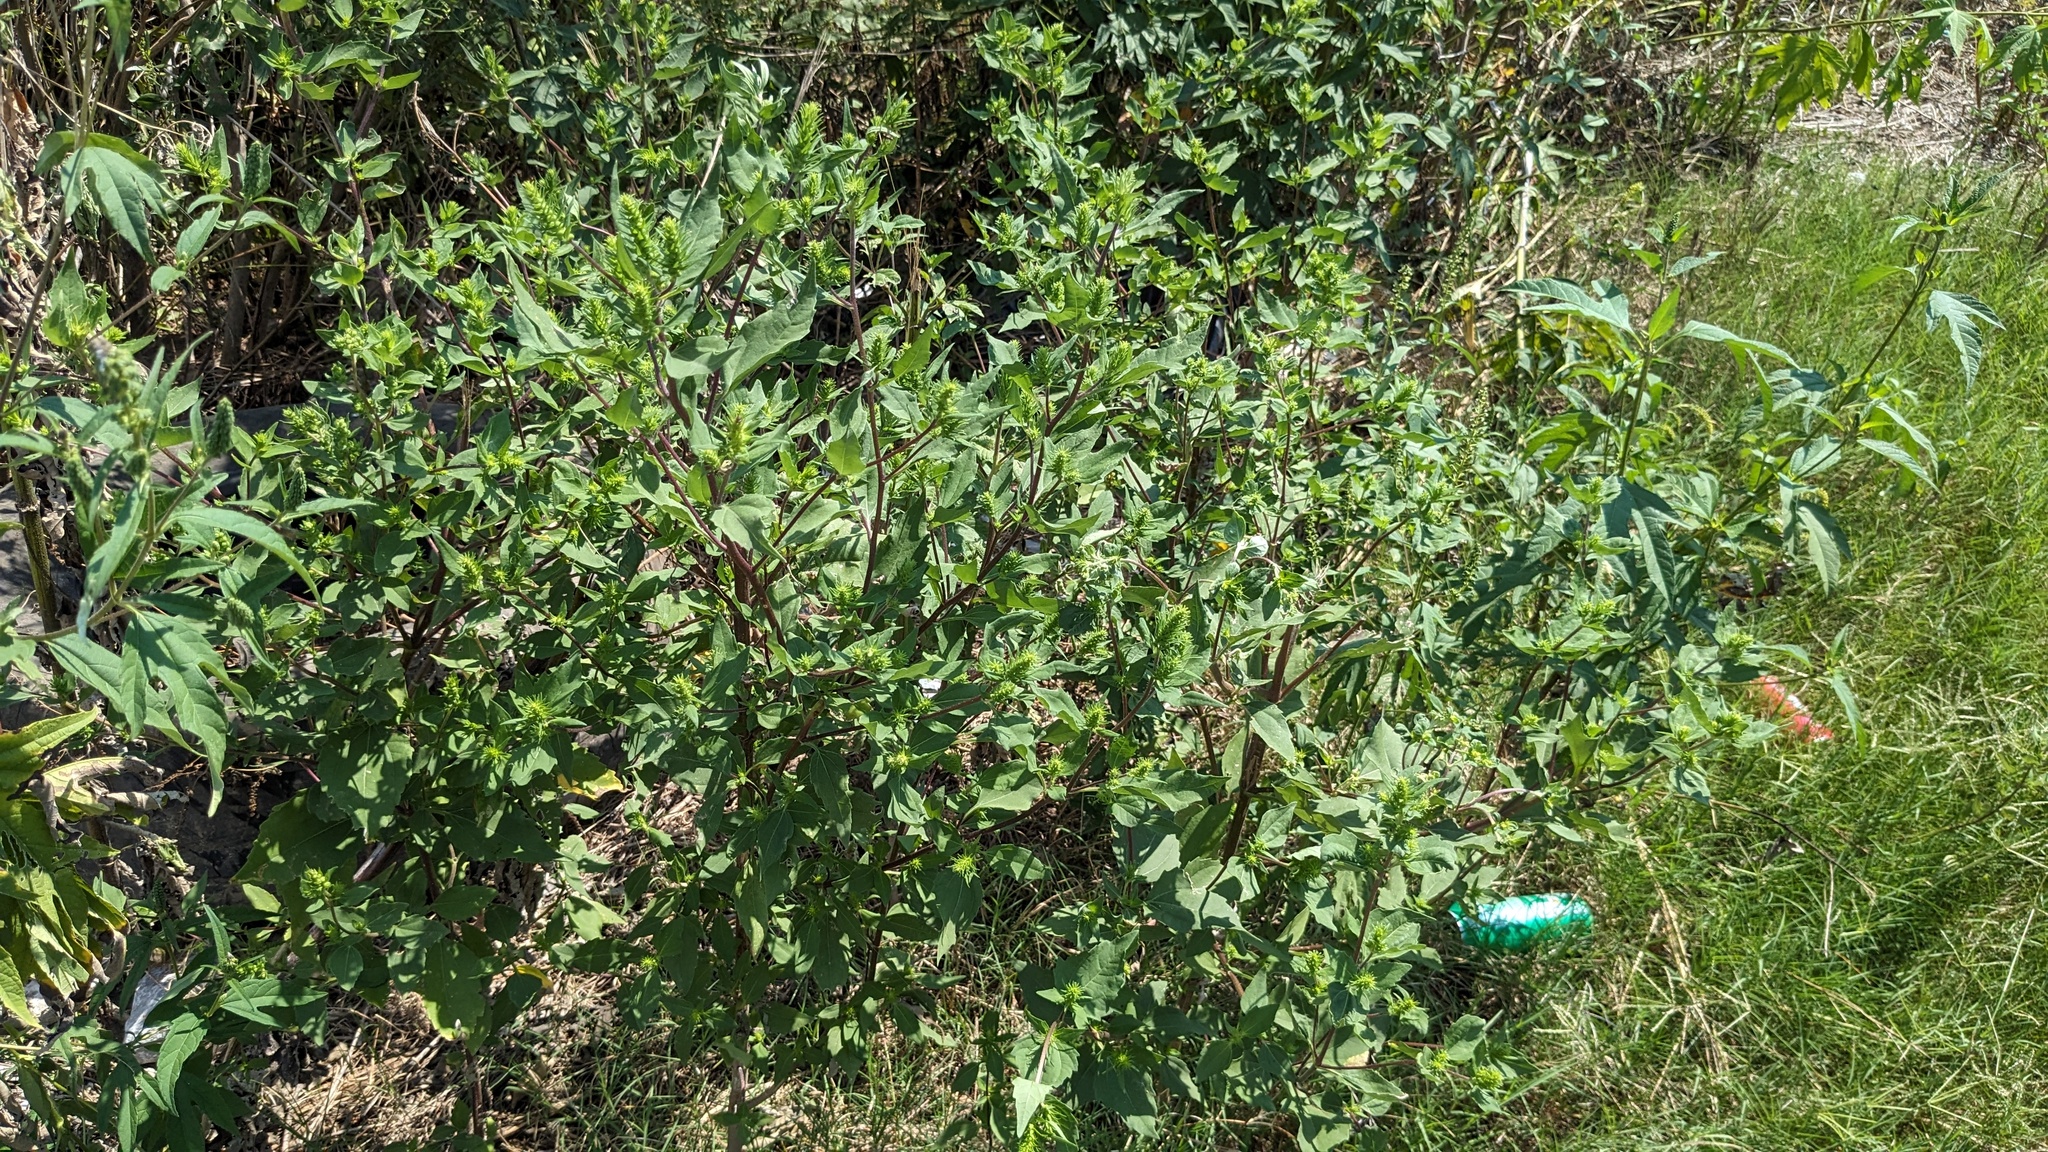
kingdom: Plantae
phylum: Tracheophyta
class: Magnoliopsida
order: Asterales
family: Asteraceae
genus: Iva
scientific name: Iva annua
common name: Marsh-elder
